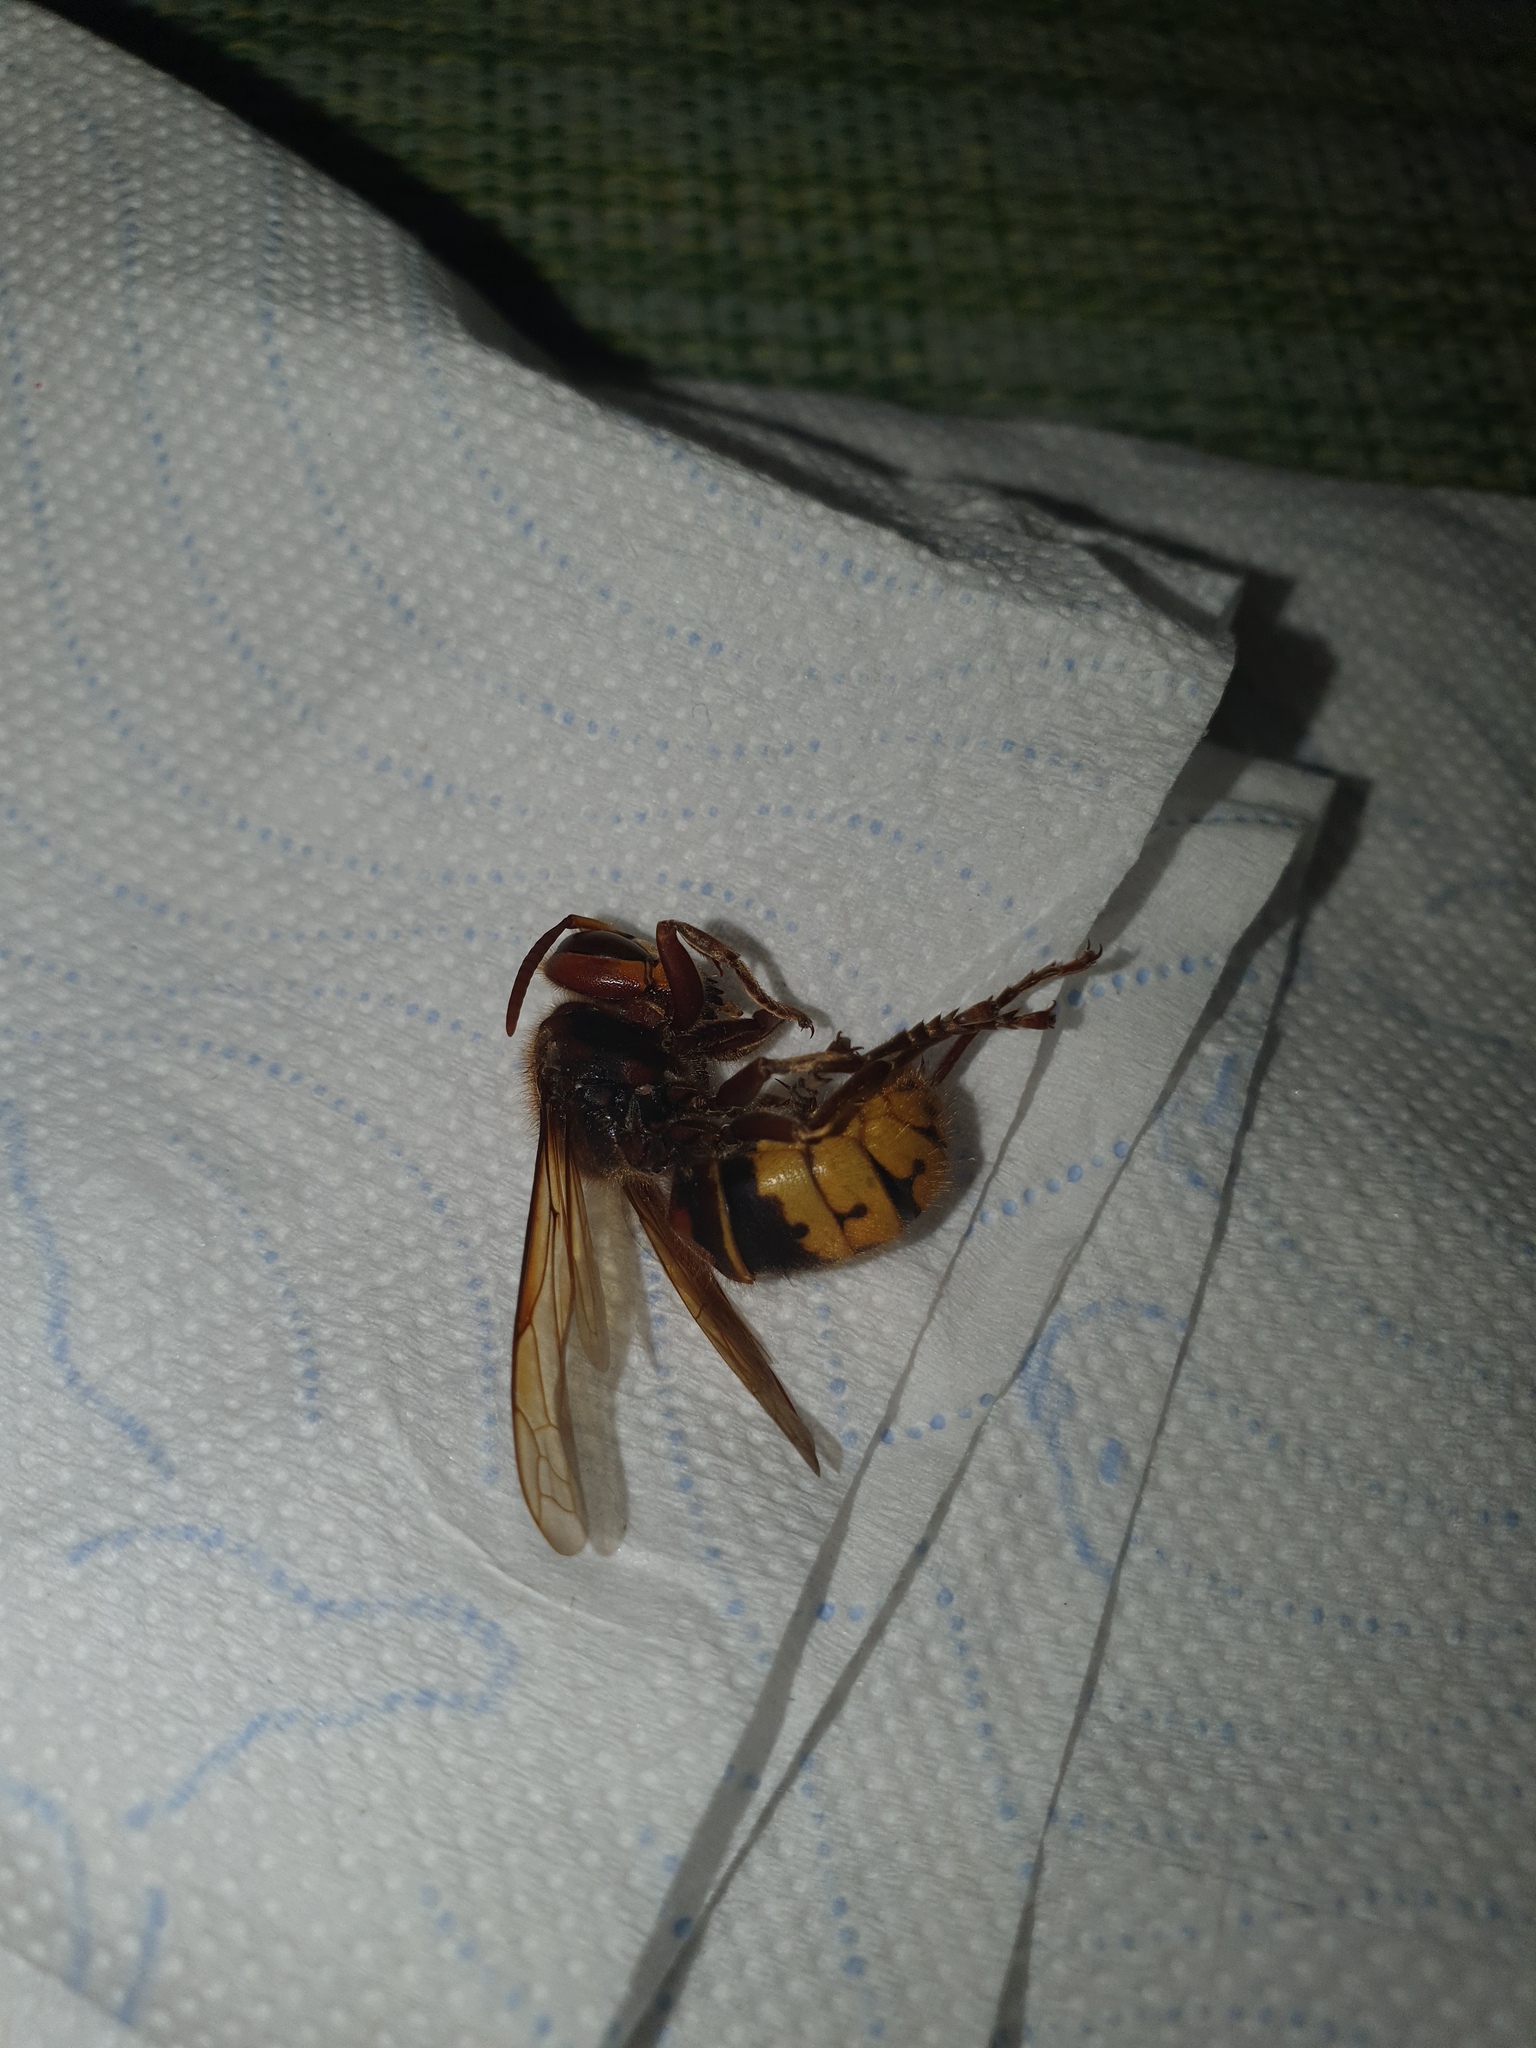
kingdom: Animalia
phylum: Arthropoda
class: Insecta
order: Hymenoptera
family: Vespidae
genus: Vespa
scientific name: Vespa crabro
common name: Hornet
